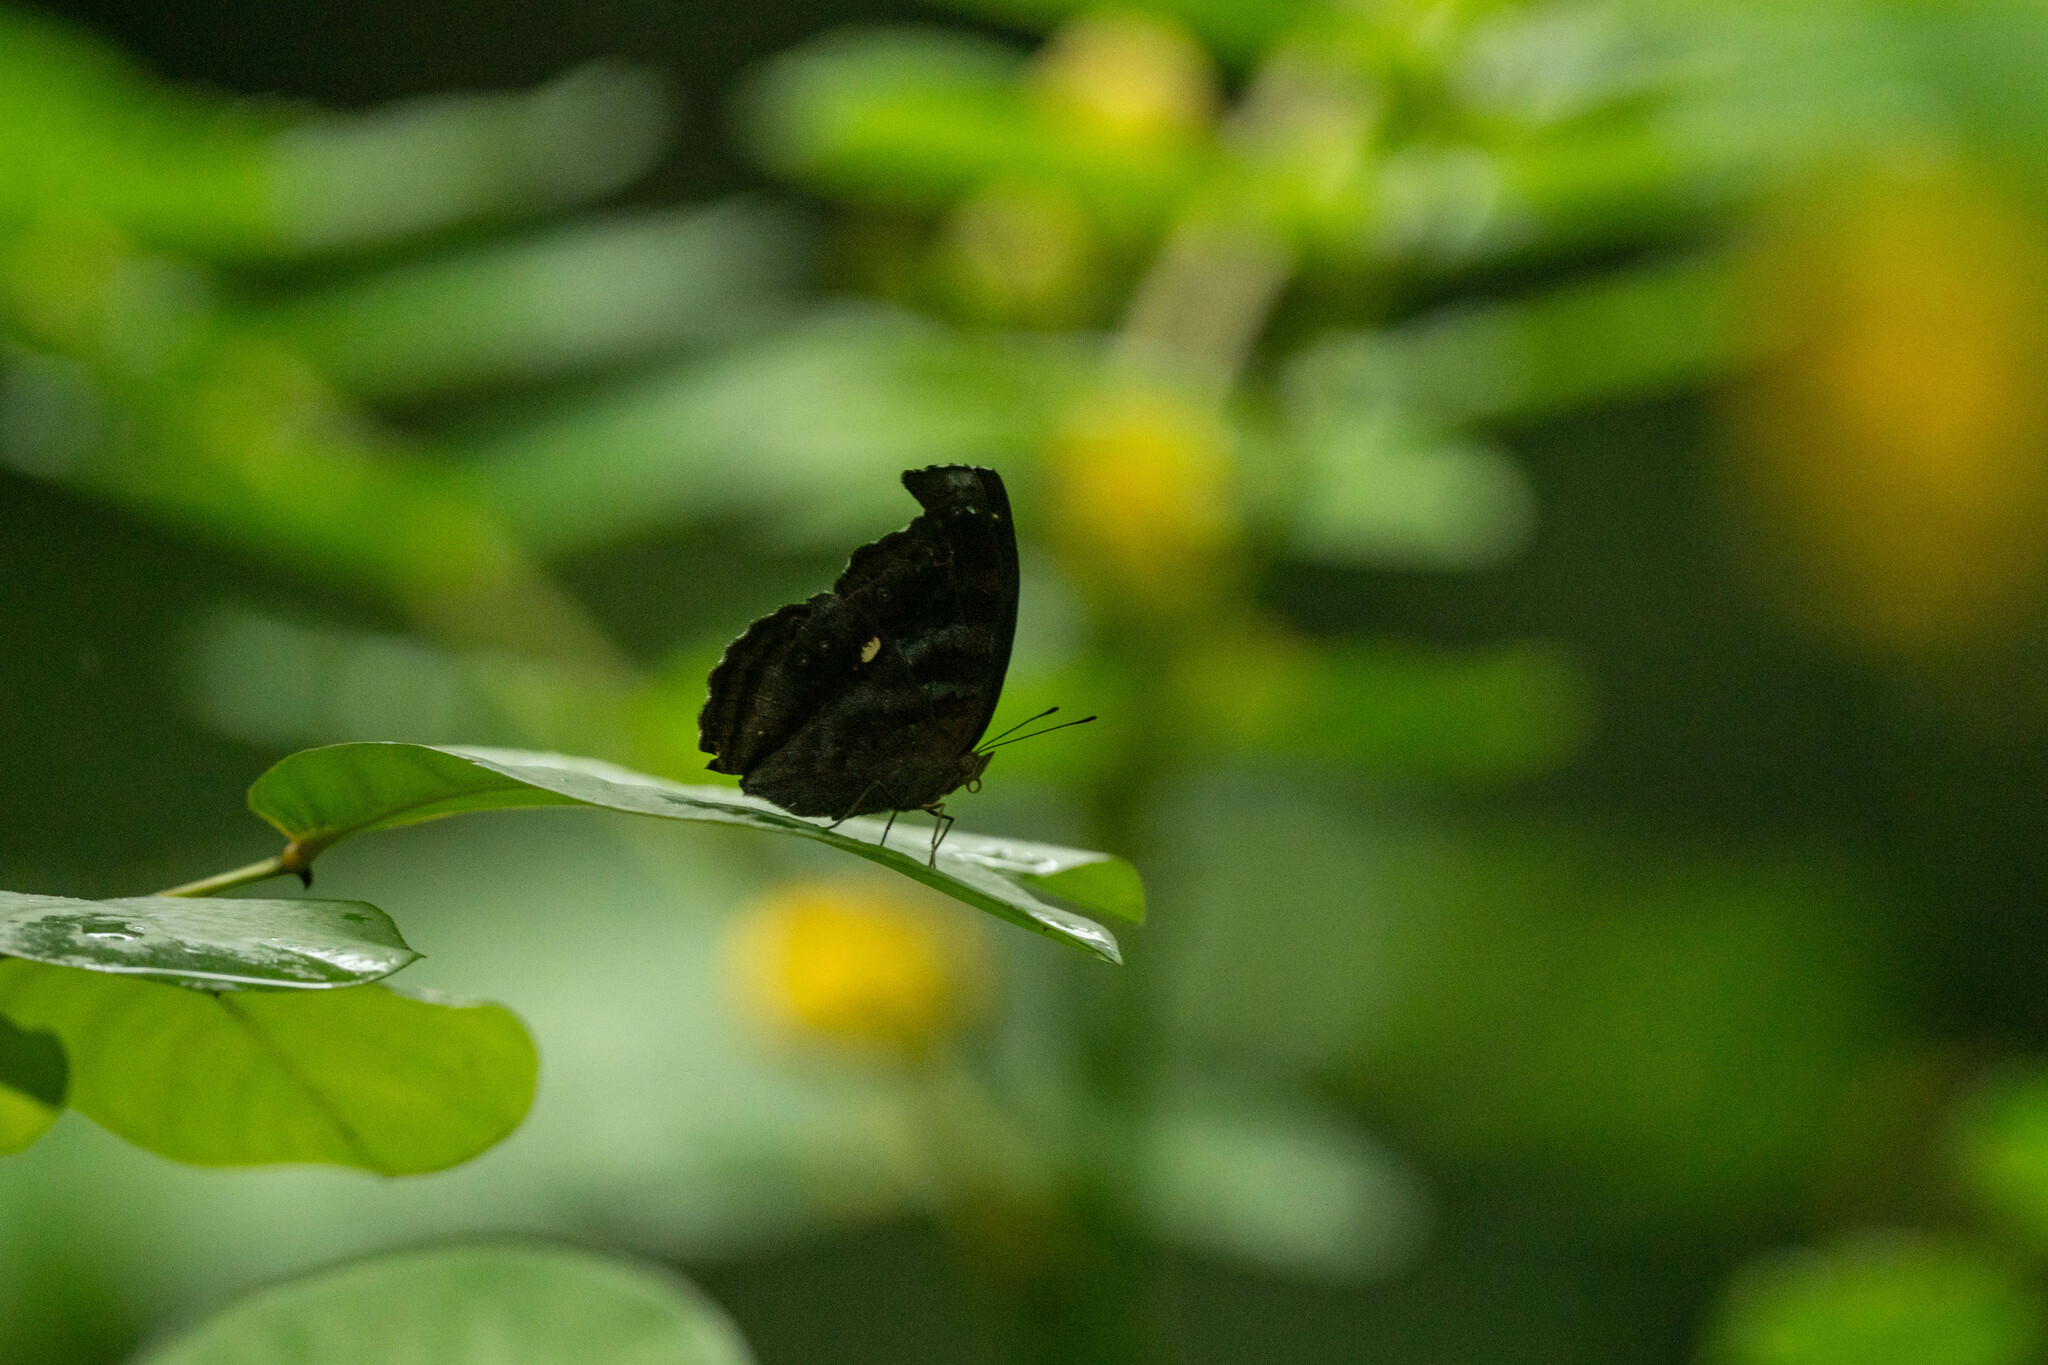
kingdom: Animalia
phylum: Arthropoda
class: Insecta
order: Lepidoptera
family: Nymphalidae
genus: Junonia
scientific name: Junonia iphita
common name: Chocolate pansy
